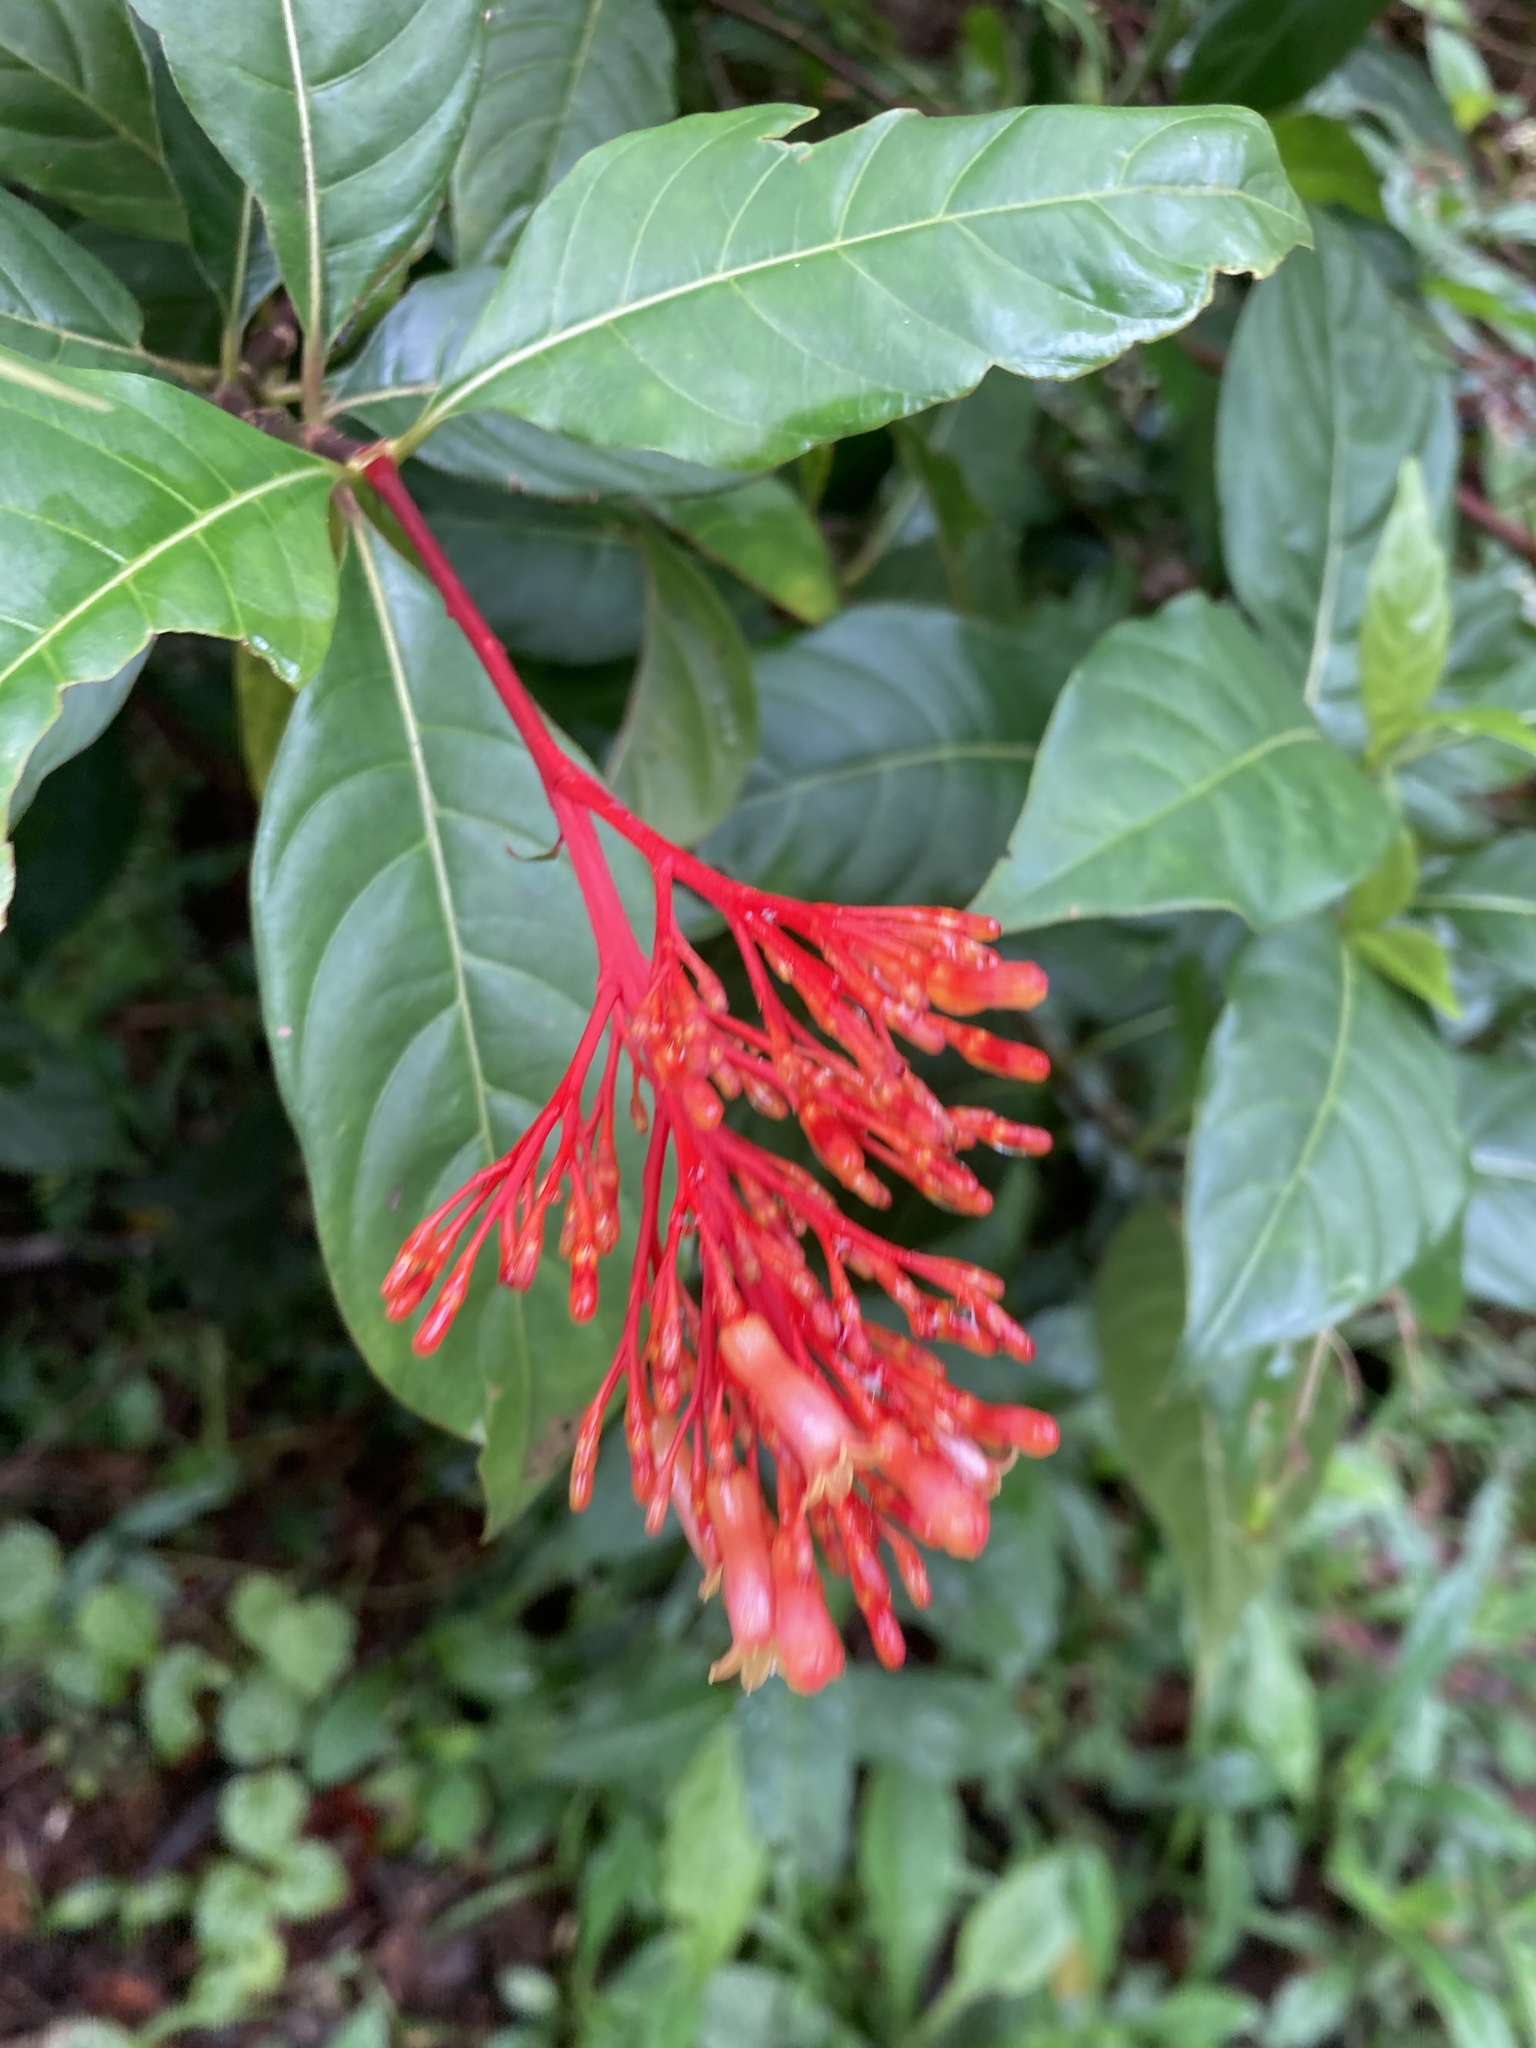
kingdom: Plantae
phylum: Tracheophyta
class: Magnoliopsida
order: Gentianales
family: Rubiaceae
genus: Palicourea
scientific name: Palicourea crocea
